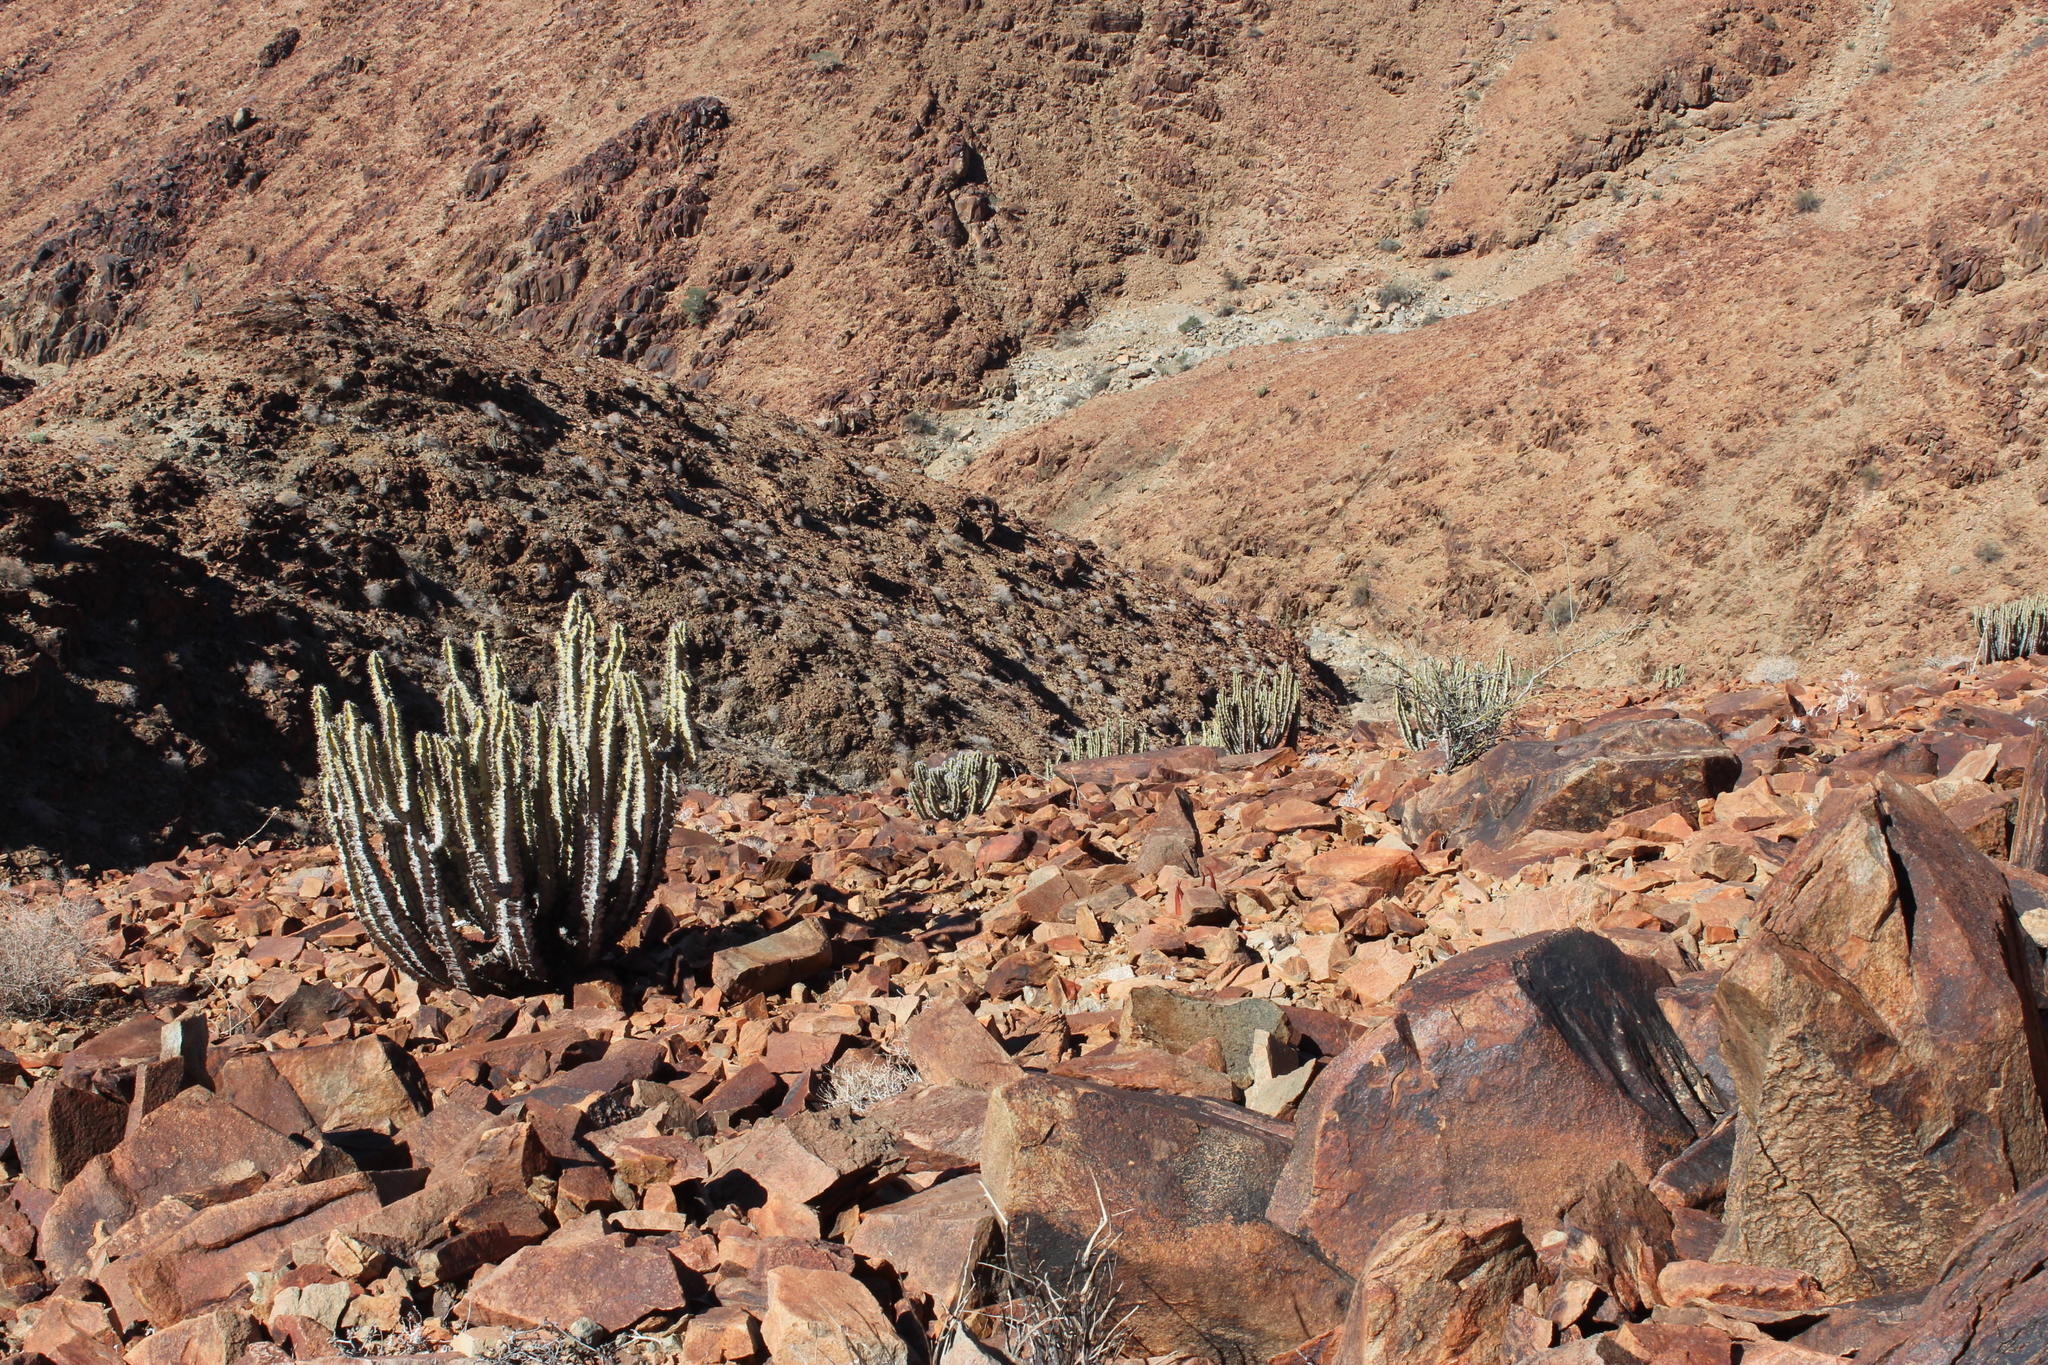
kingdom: Plantae
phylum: Tracheophyta
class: Magnoliopsida
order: Malpighiales
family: Euphorbiaceae
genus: Euphorbia
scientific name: Euphorbia virosa
